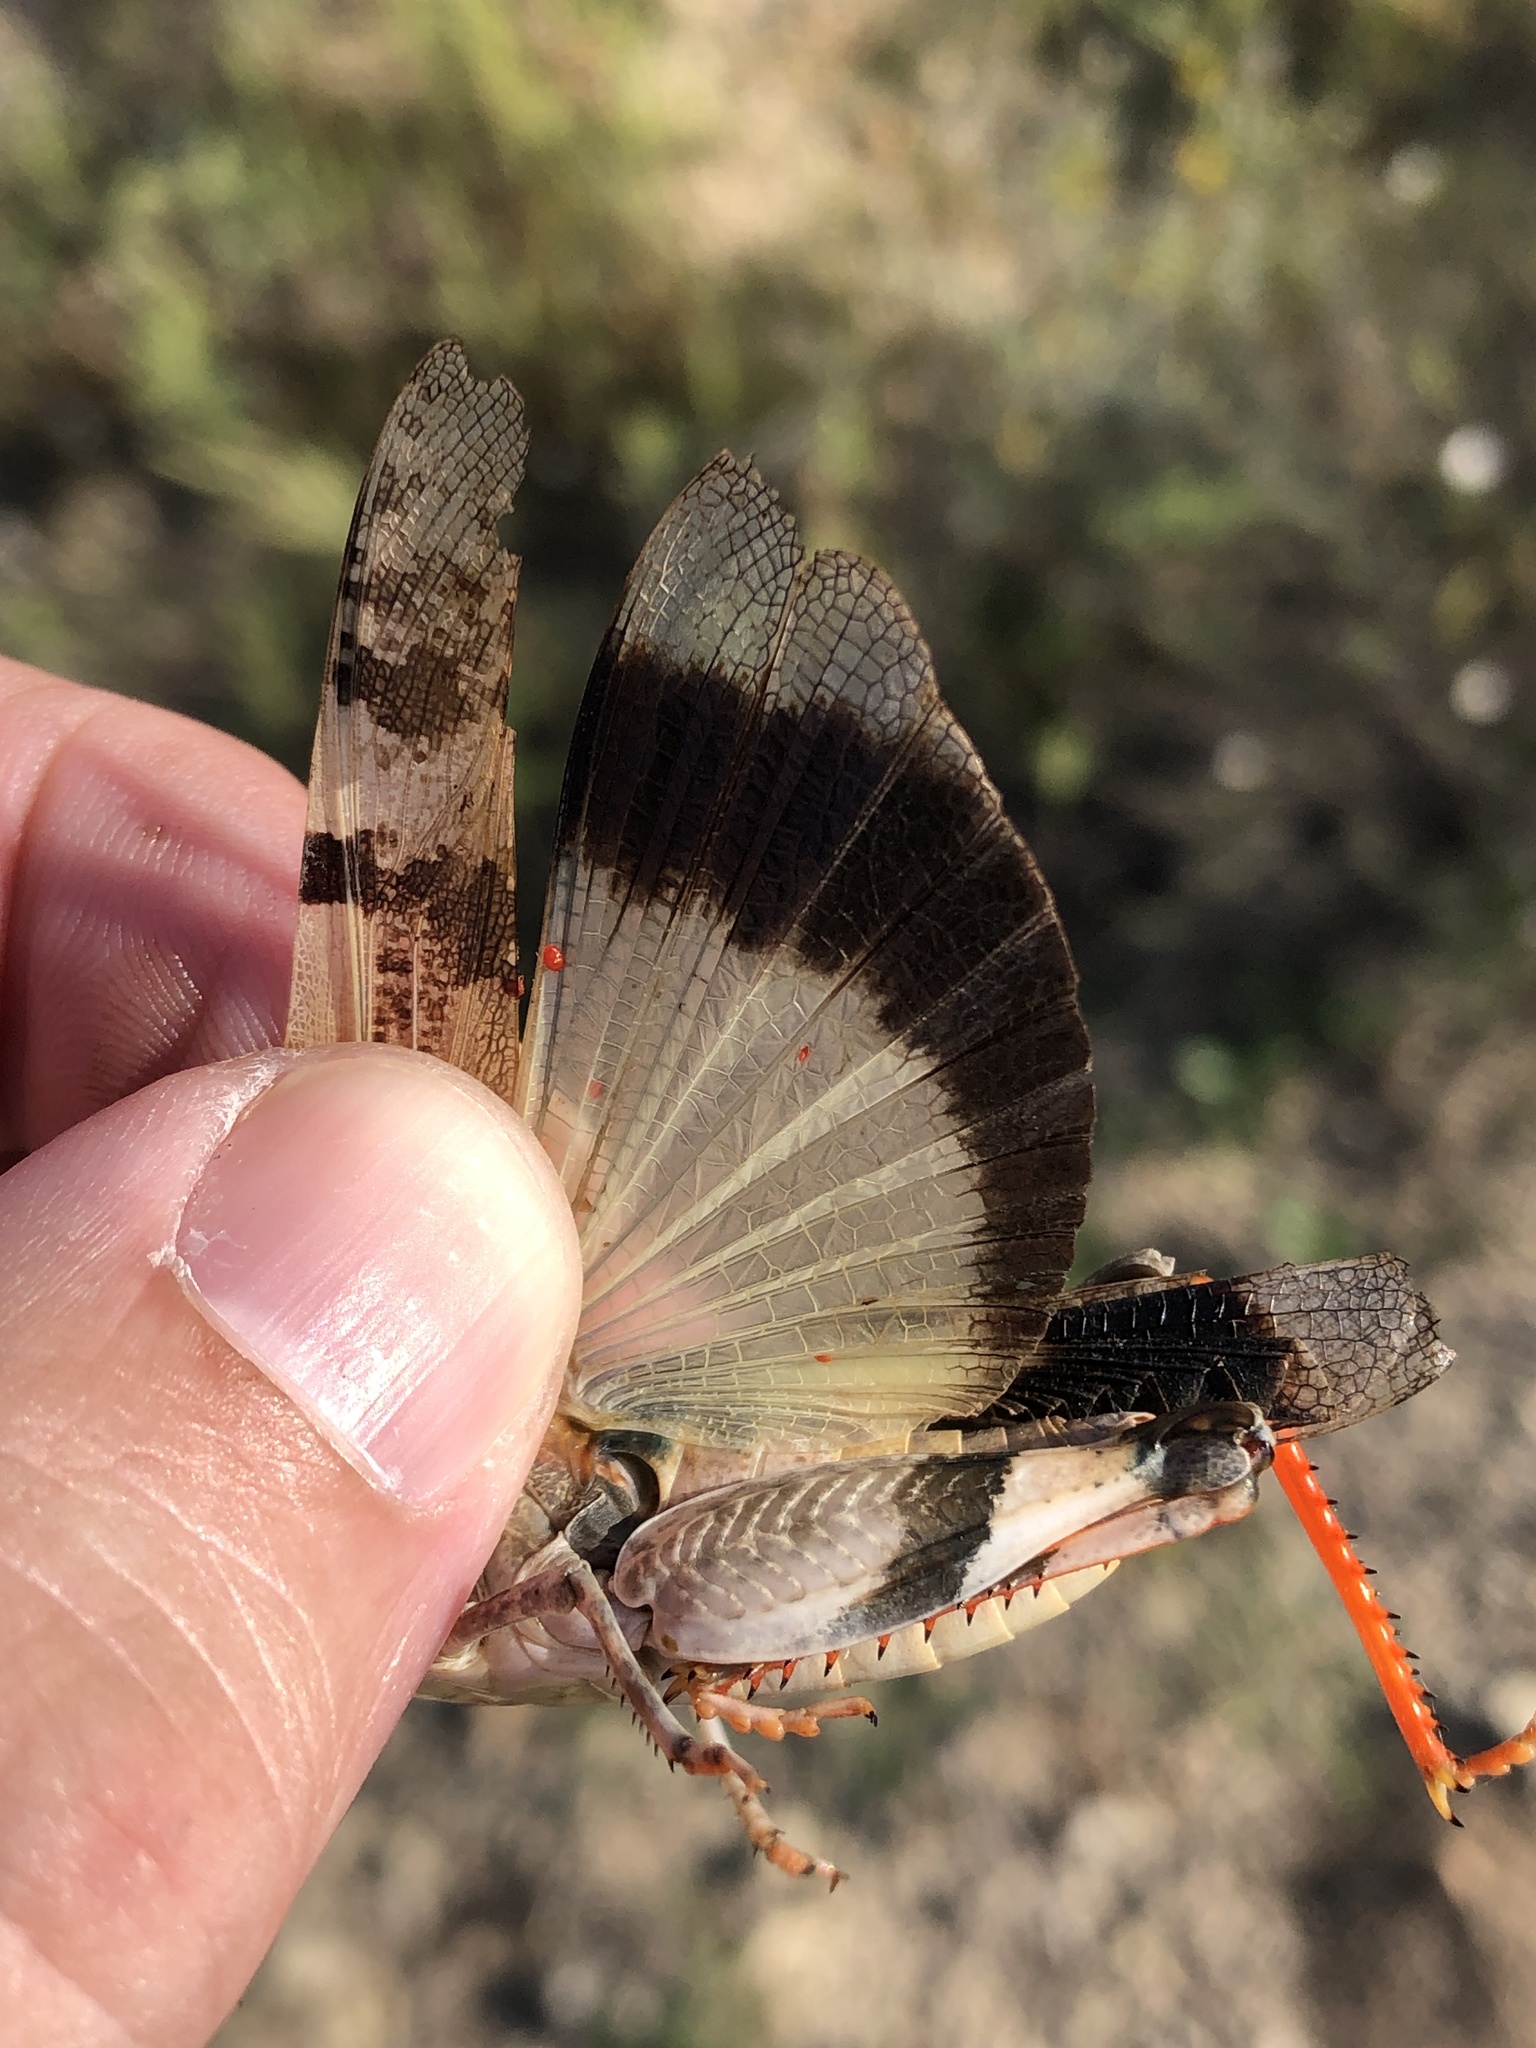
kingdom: Animalia
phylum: Arthropoda
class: Insecta
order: Orthoptera
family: Acrididae
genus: Hadrotettix
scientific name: Hadrotettix trifasciatus
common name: Threebanded grasshopper
